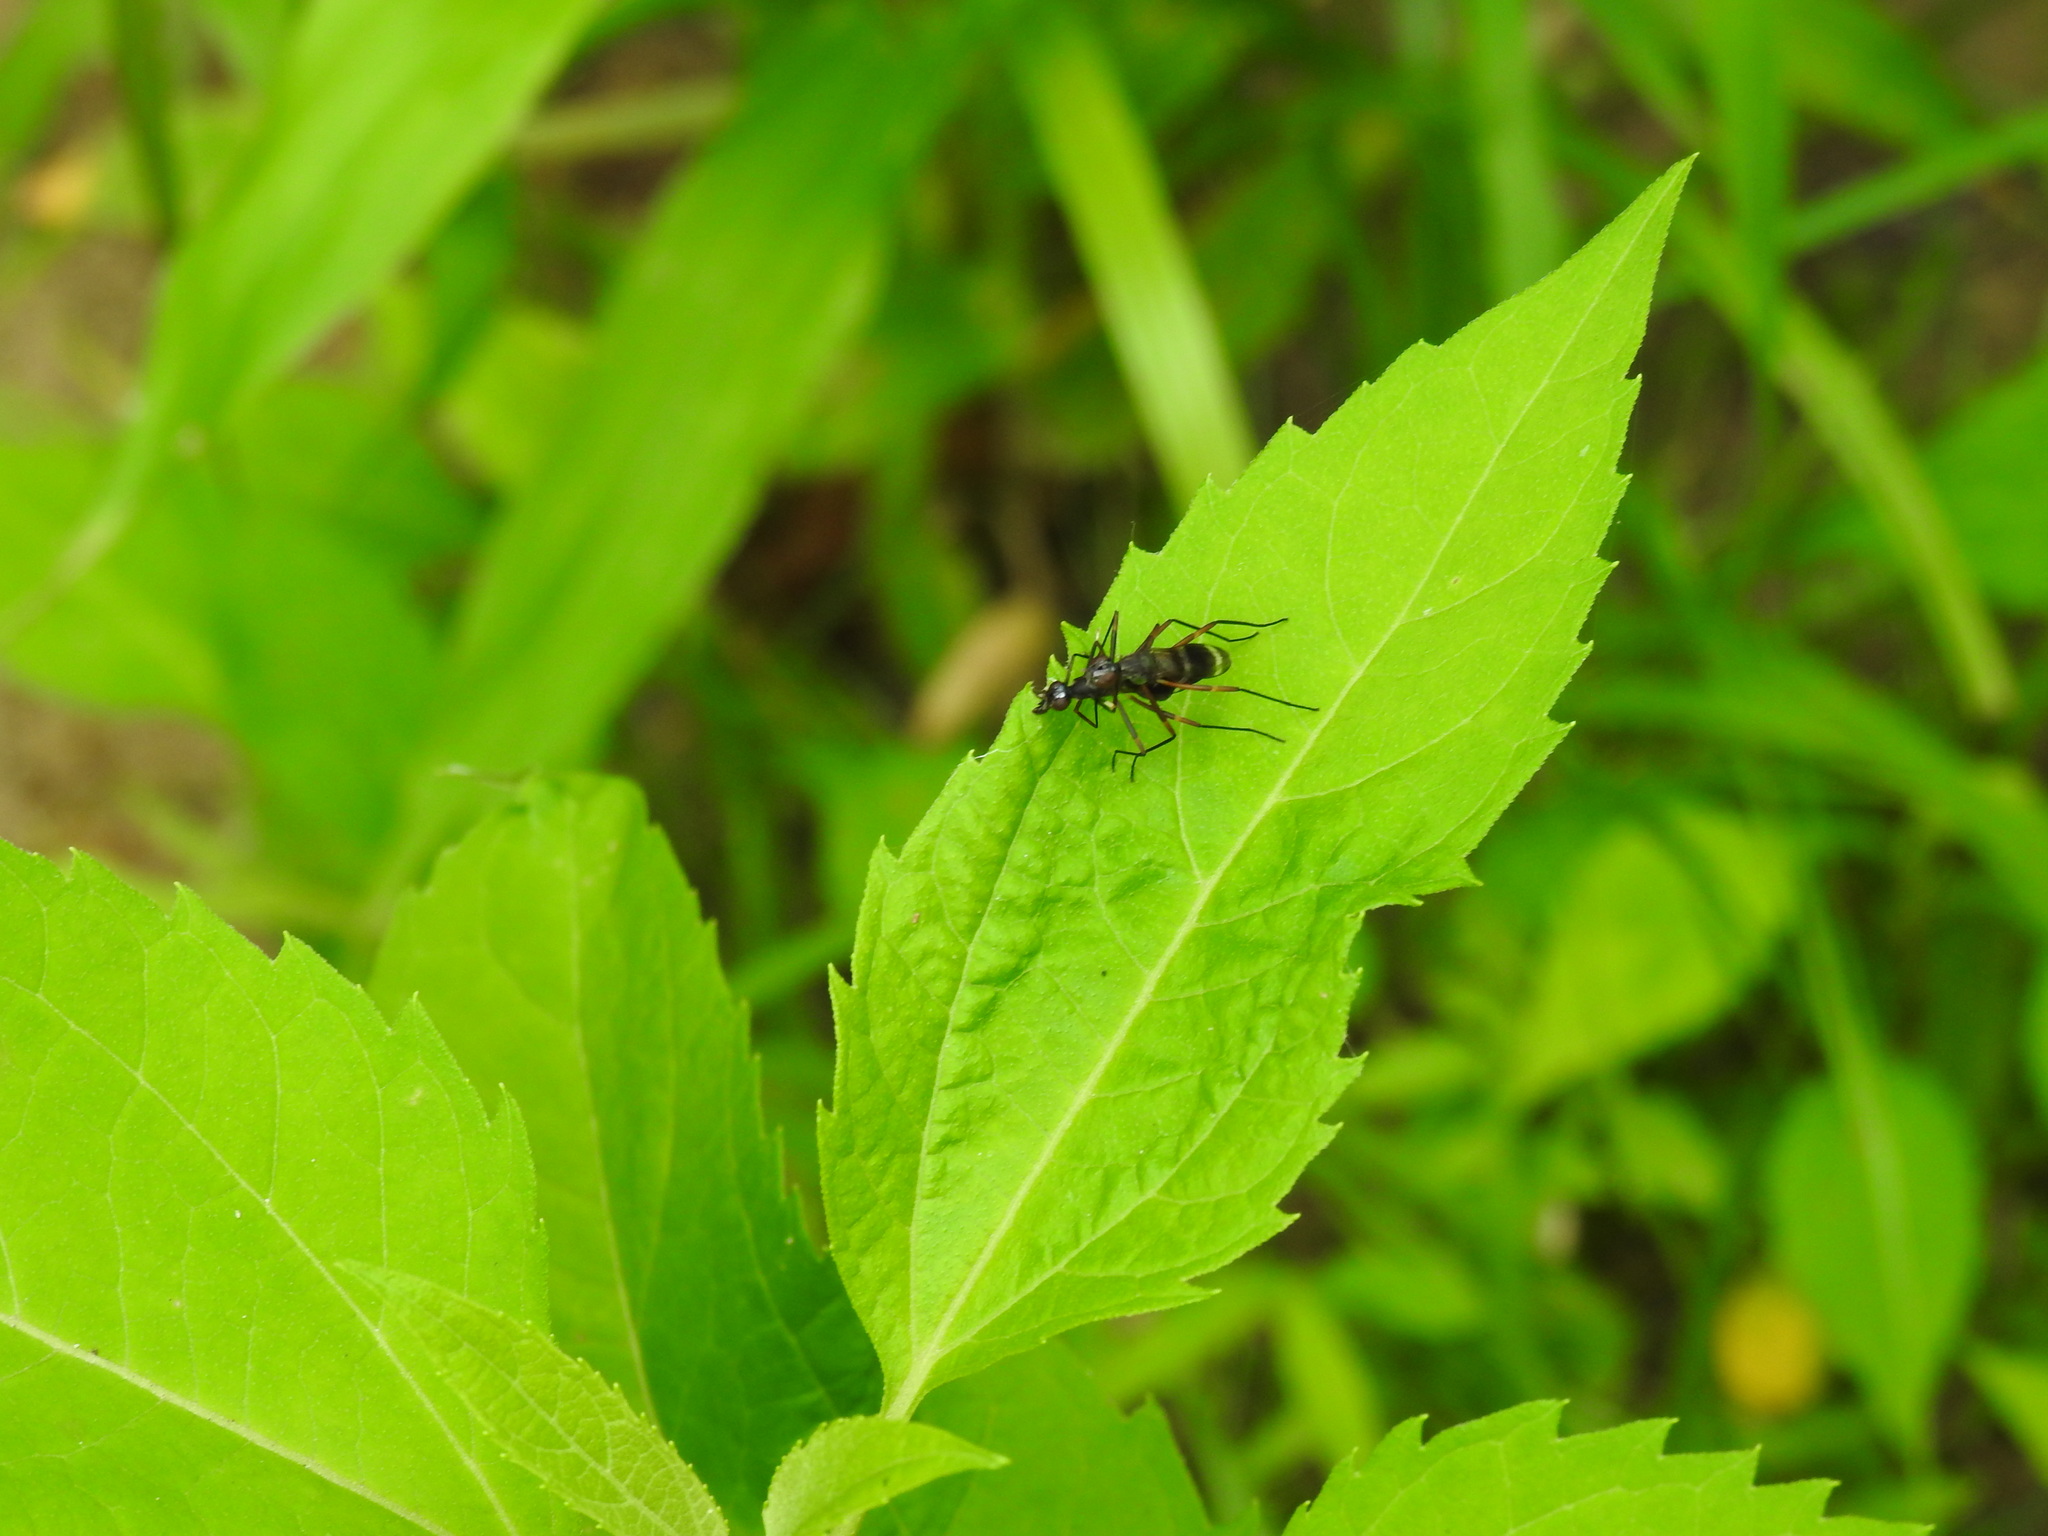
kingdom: Animalia
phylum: Arthropoda
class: Insecta
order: Diptera
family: Micropezidae
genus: Taeniaptera
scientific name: Taeniaptera trivittata
